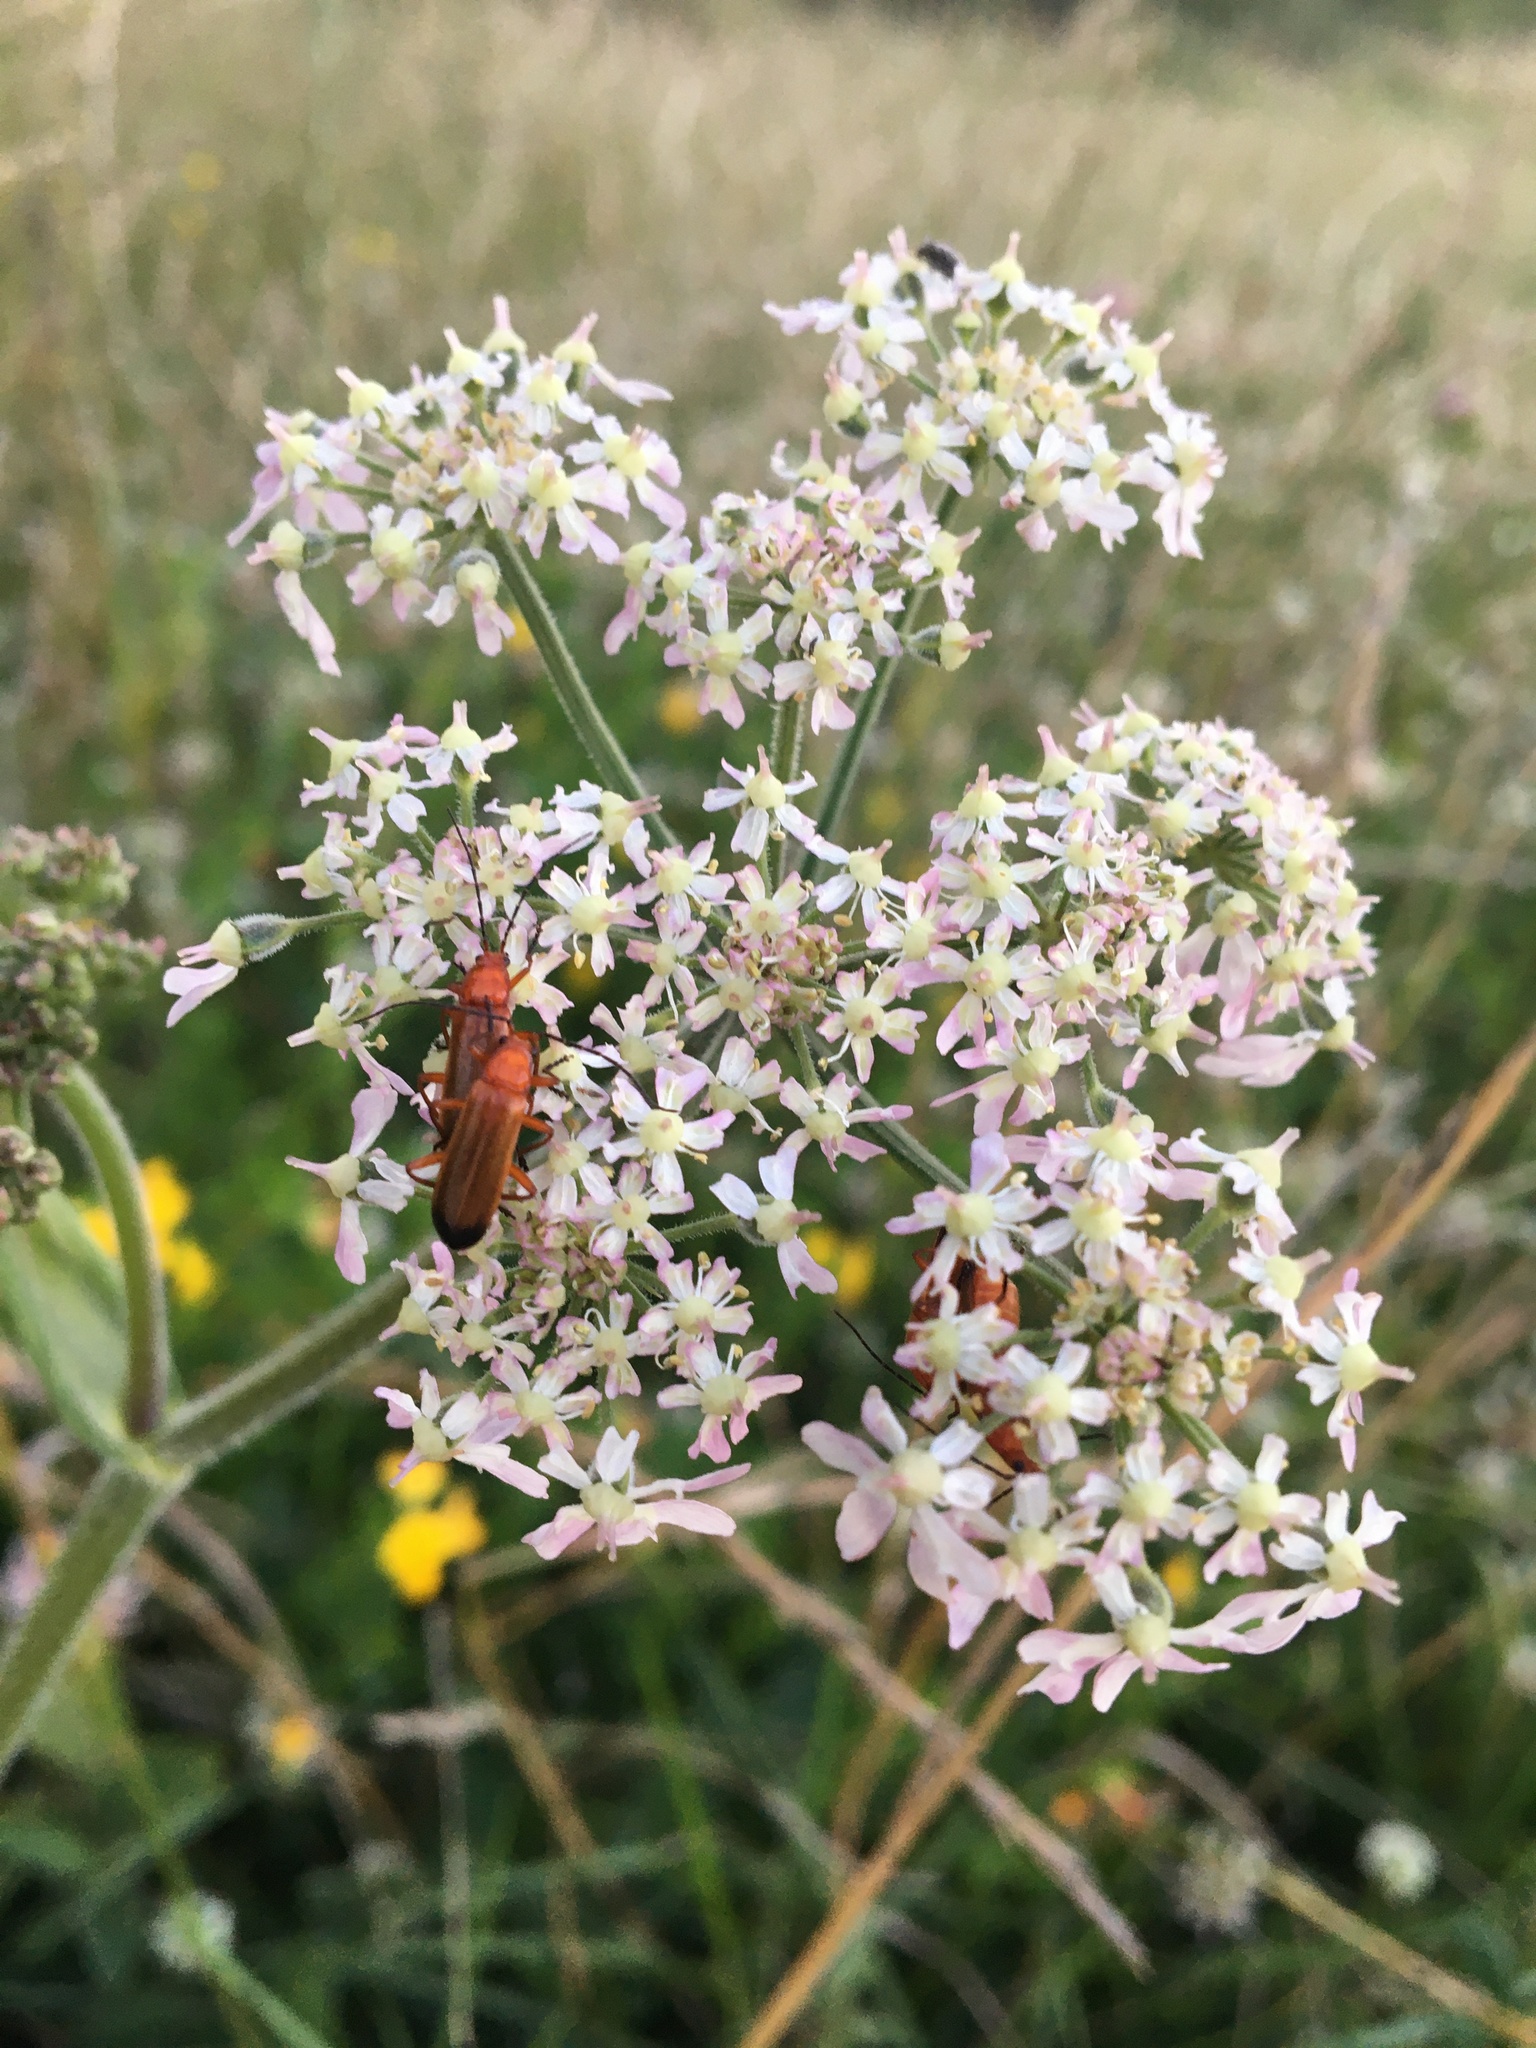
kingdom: Animalia
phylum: Arthropoda
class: Insecta
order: Coleoptera
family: Cantharidae
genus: Rhagonycha
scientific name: Rhagonycha fulva
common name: Common red soldier beetle
